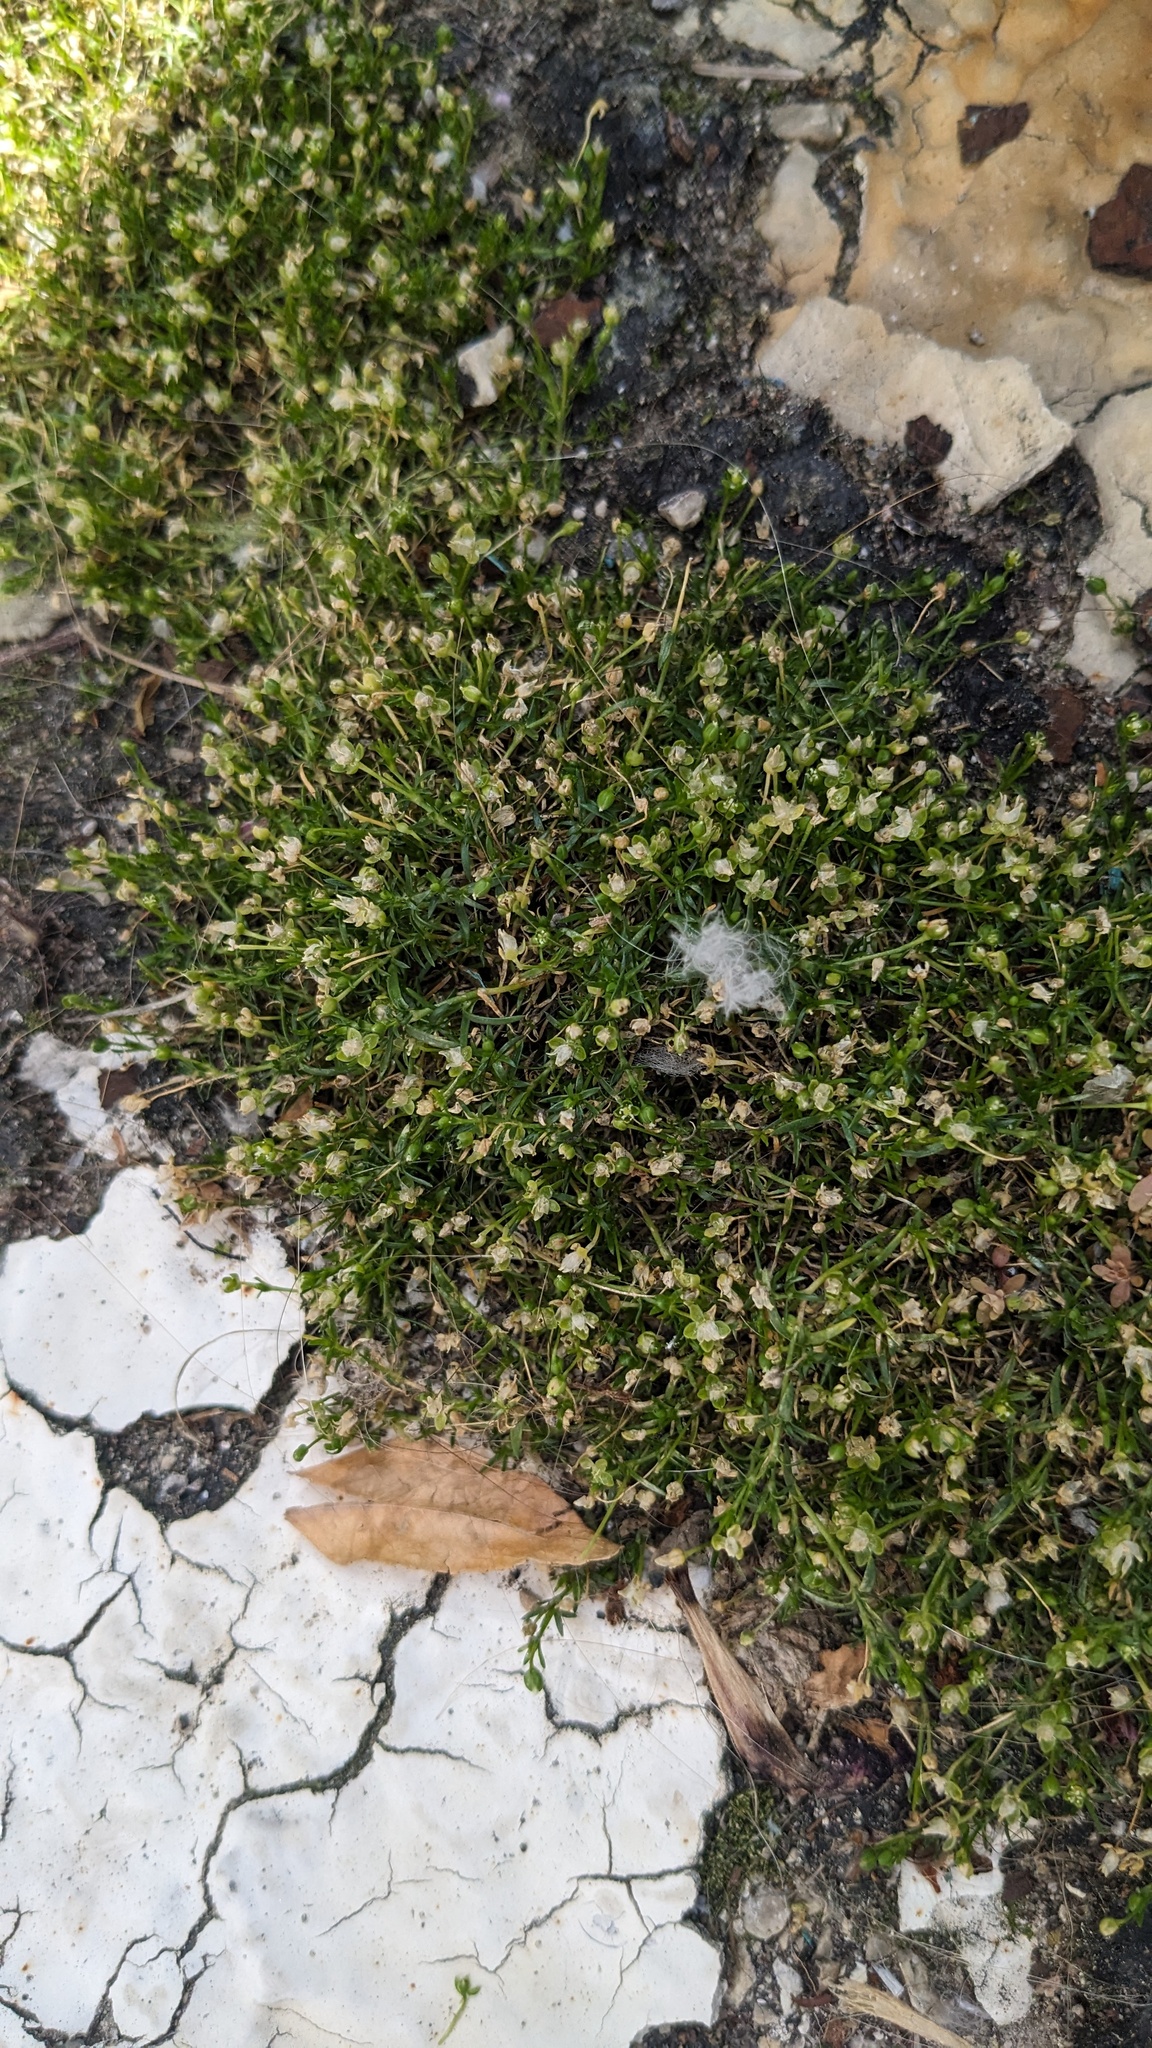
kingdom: Plantae
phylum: Tracheophyta
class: Magnoliopsida
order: Caryophyllales
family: Caryophyllaceae
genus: Sagina
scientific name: Sagina procumbens
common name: Procumbent pearlwort
